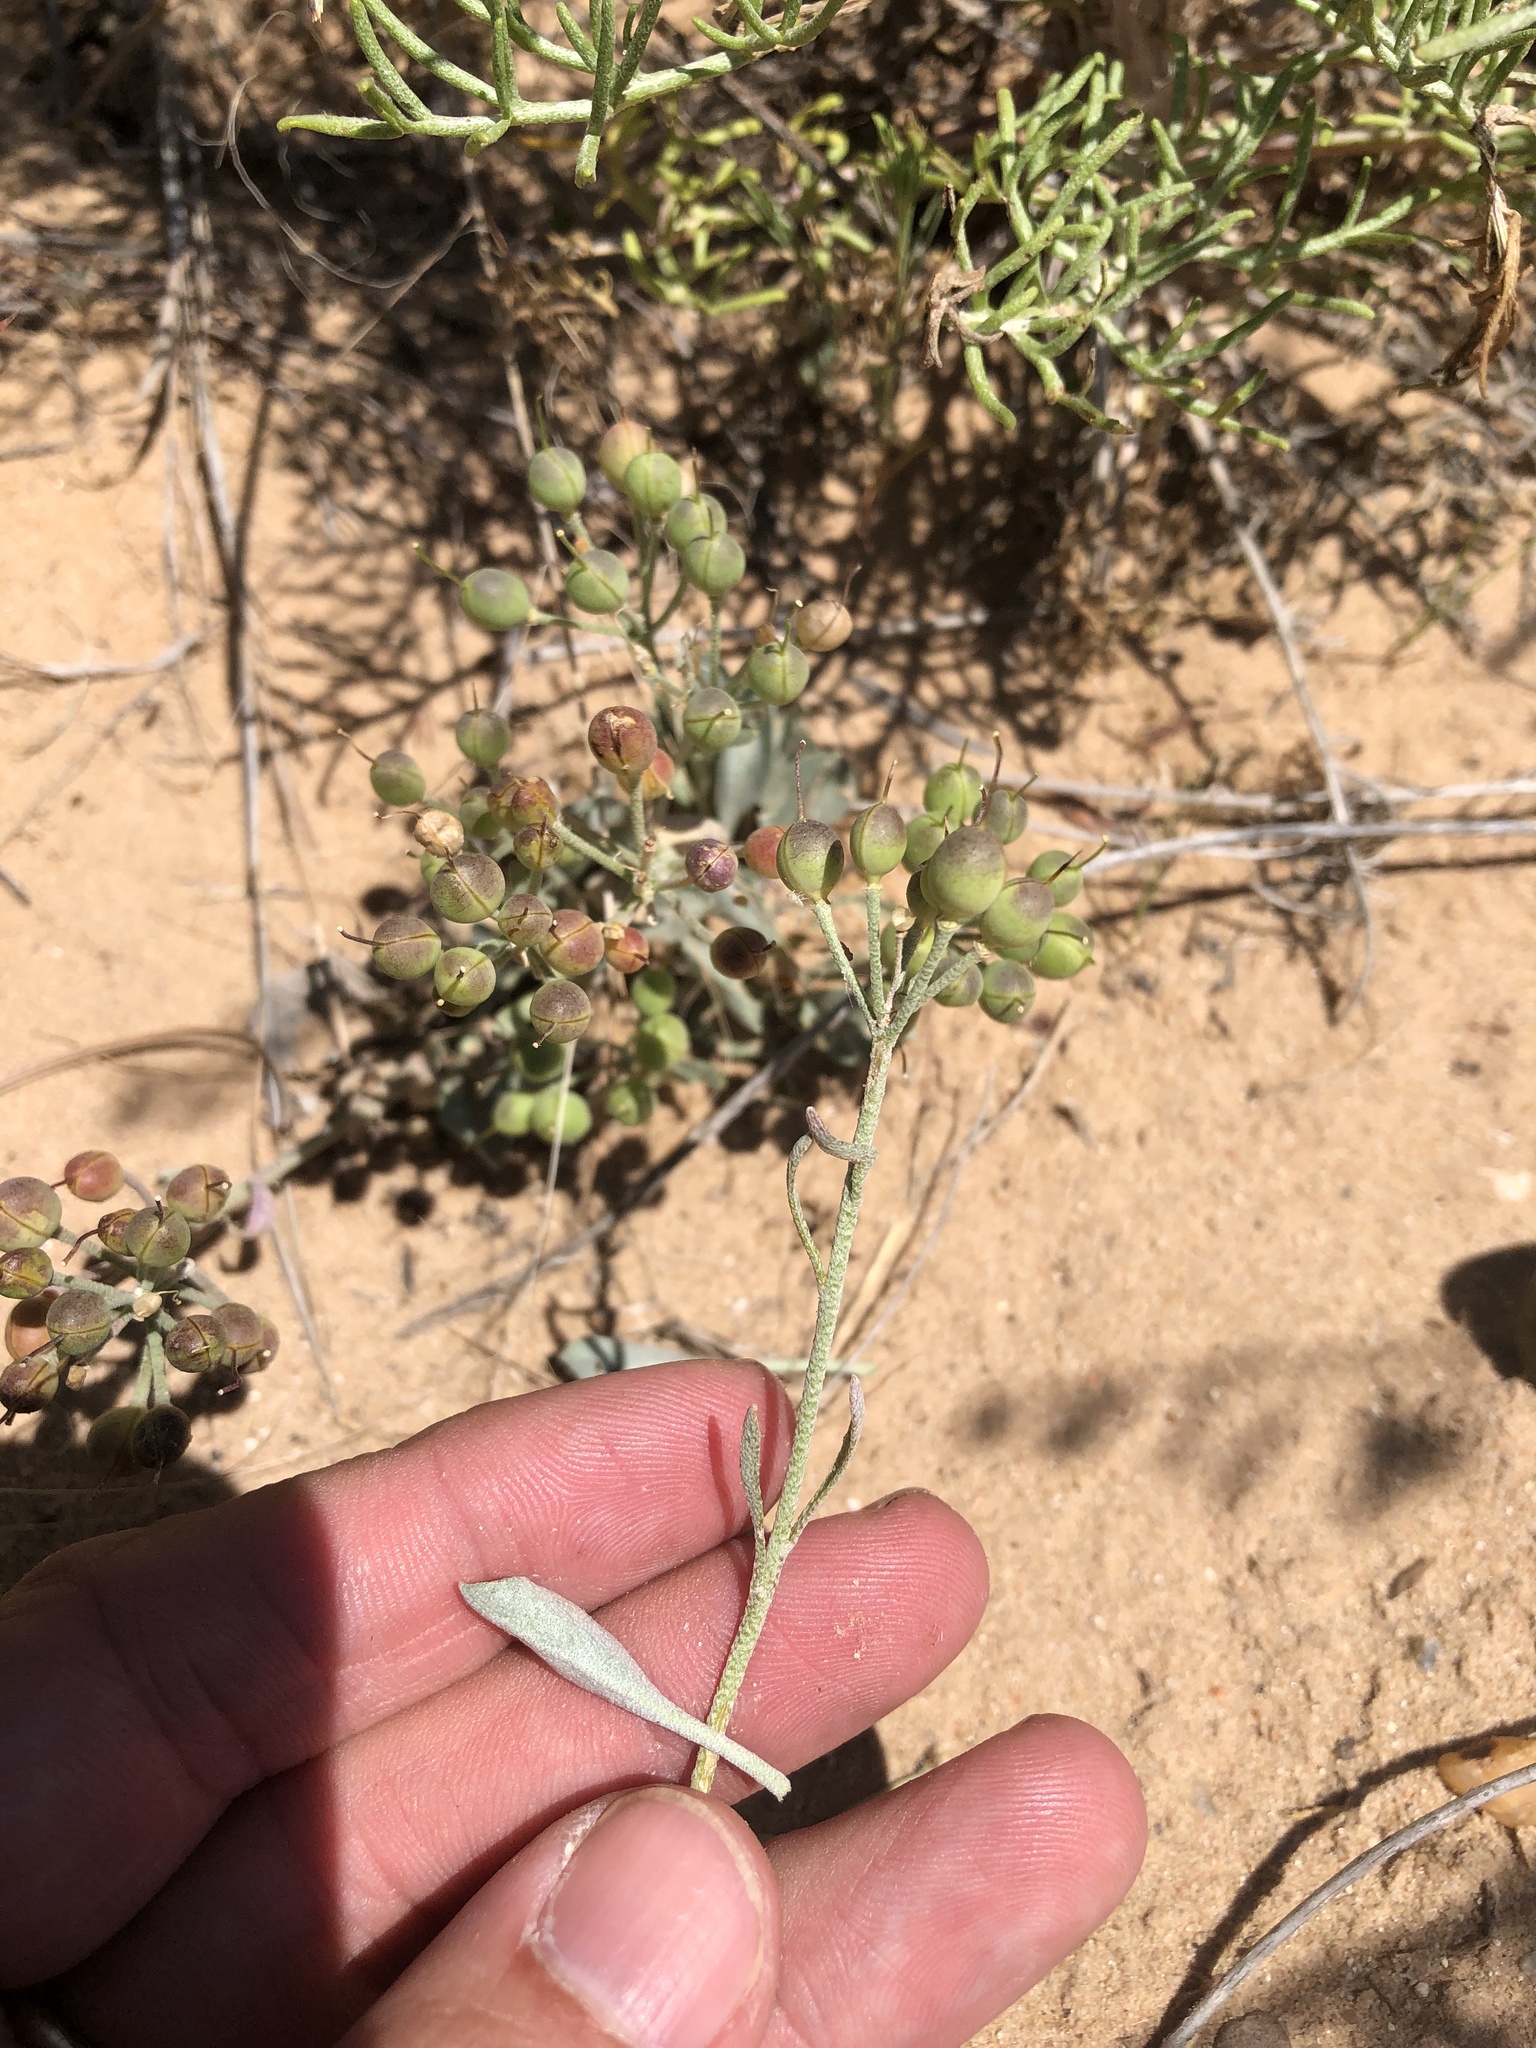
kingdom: Plantae
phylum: Tracheophyta
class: Magnoliopsida
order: Brassicales
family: Brassicaceae
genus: Physaria
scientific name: Physaria ovalifolia
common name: Round-leaf bladderpod
